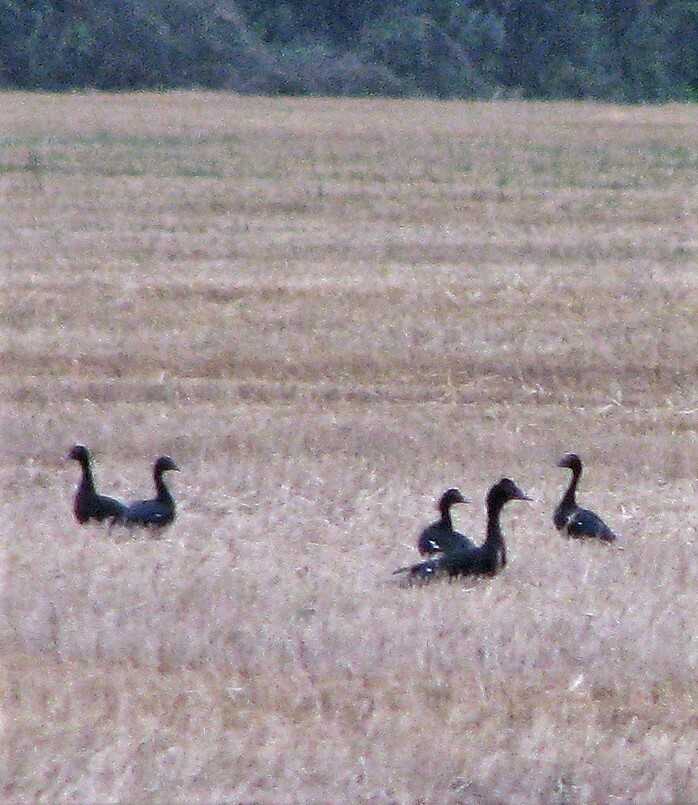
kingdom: Animalia
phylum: Chordata
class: Aves
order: Anseriformes
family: Anatidae
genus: Cairina
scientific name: Cairina moschata
